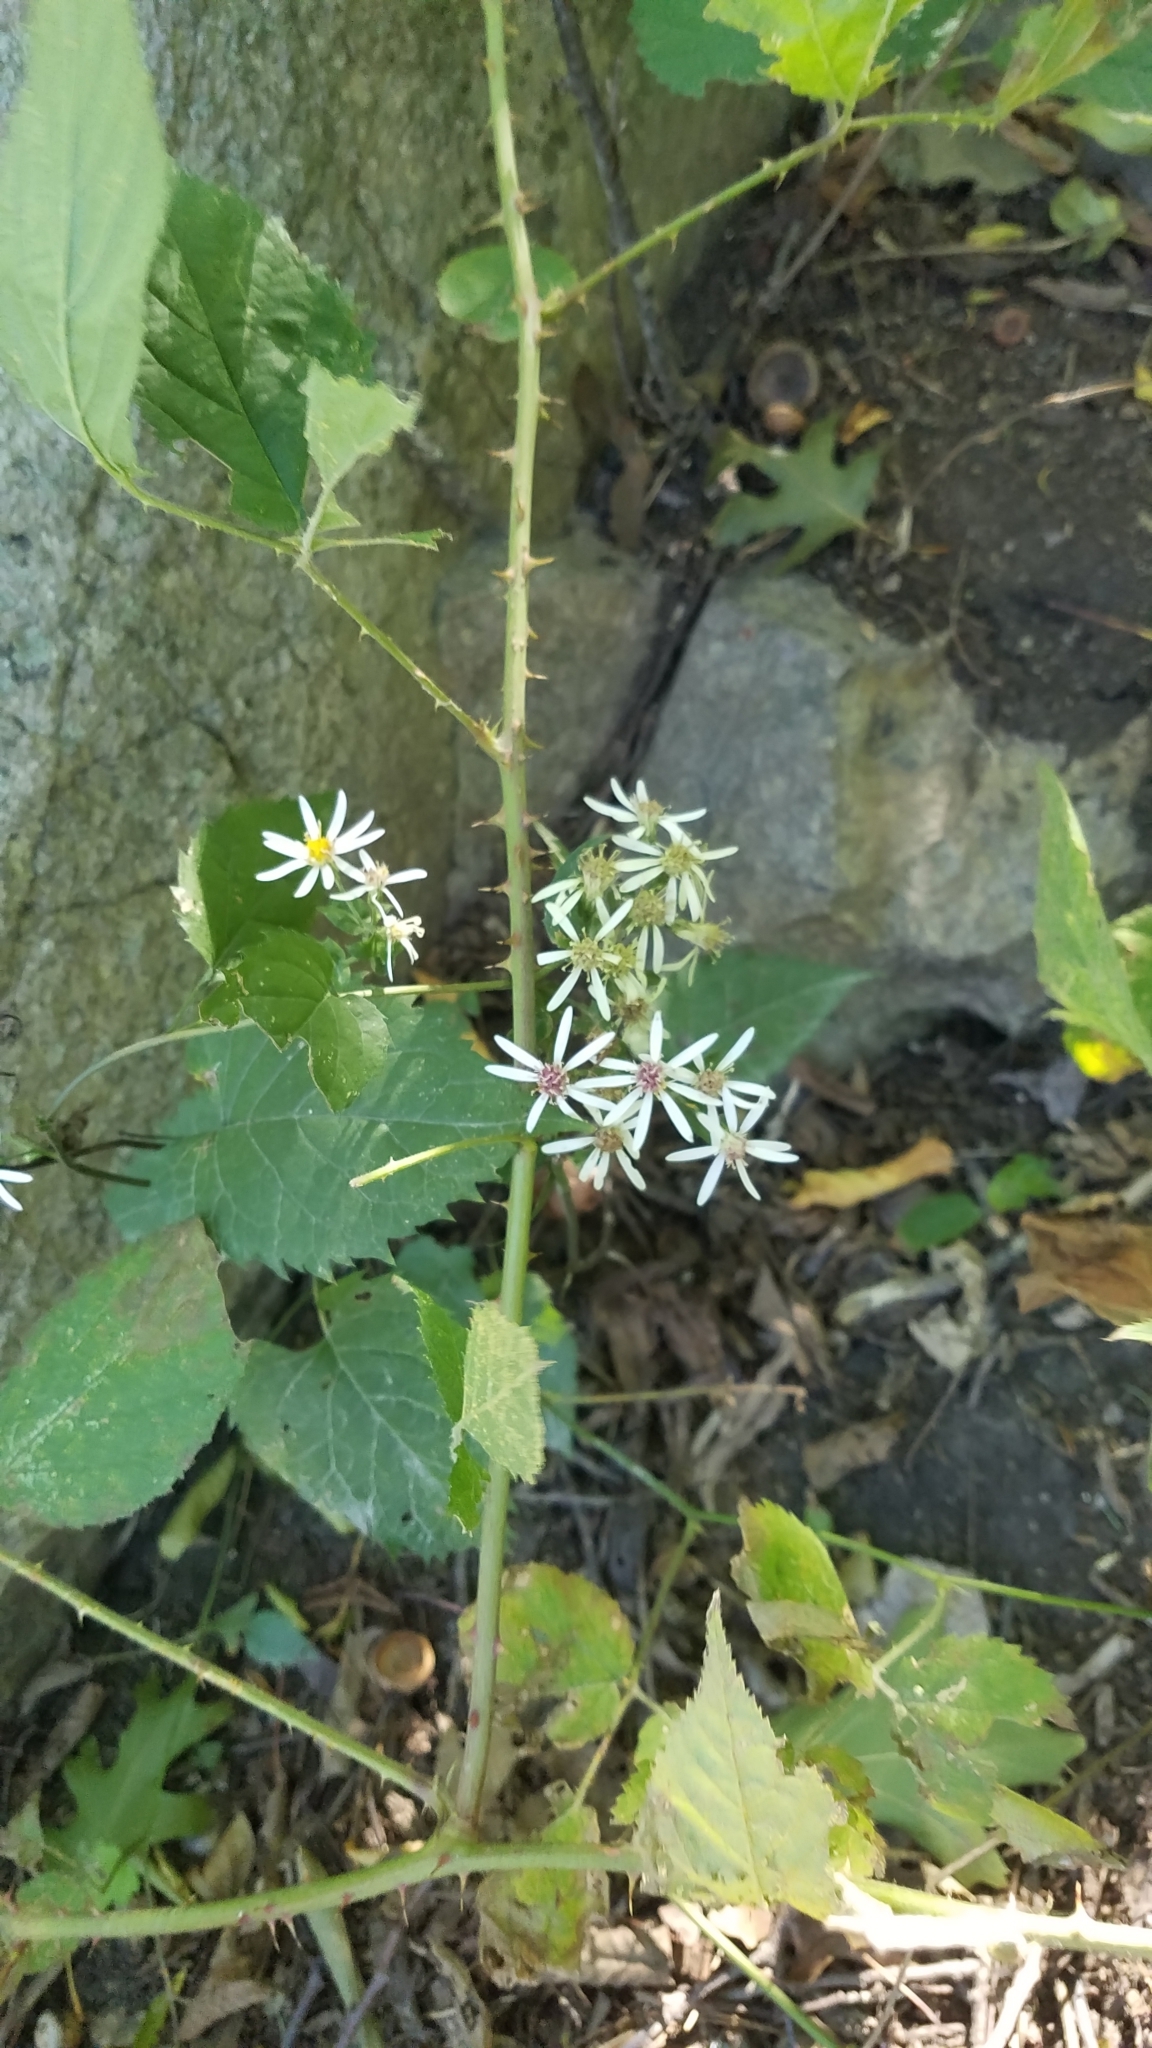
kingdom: Plantae
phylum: Tracheophyta
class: Magnoliopsida
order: Asterales
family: Asteraceae
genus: Eurybia
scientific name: Eurybia divaricata
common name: White wood aster
